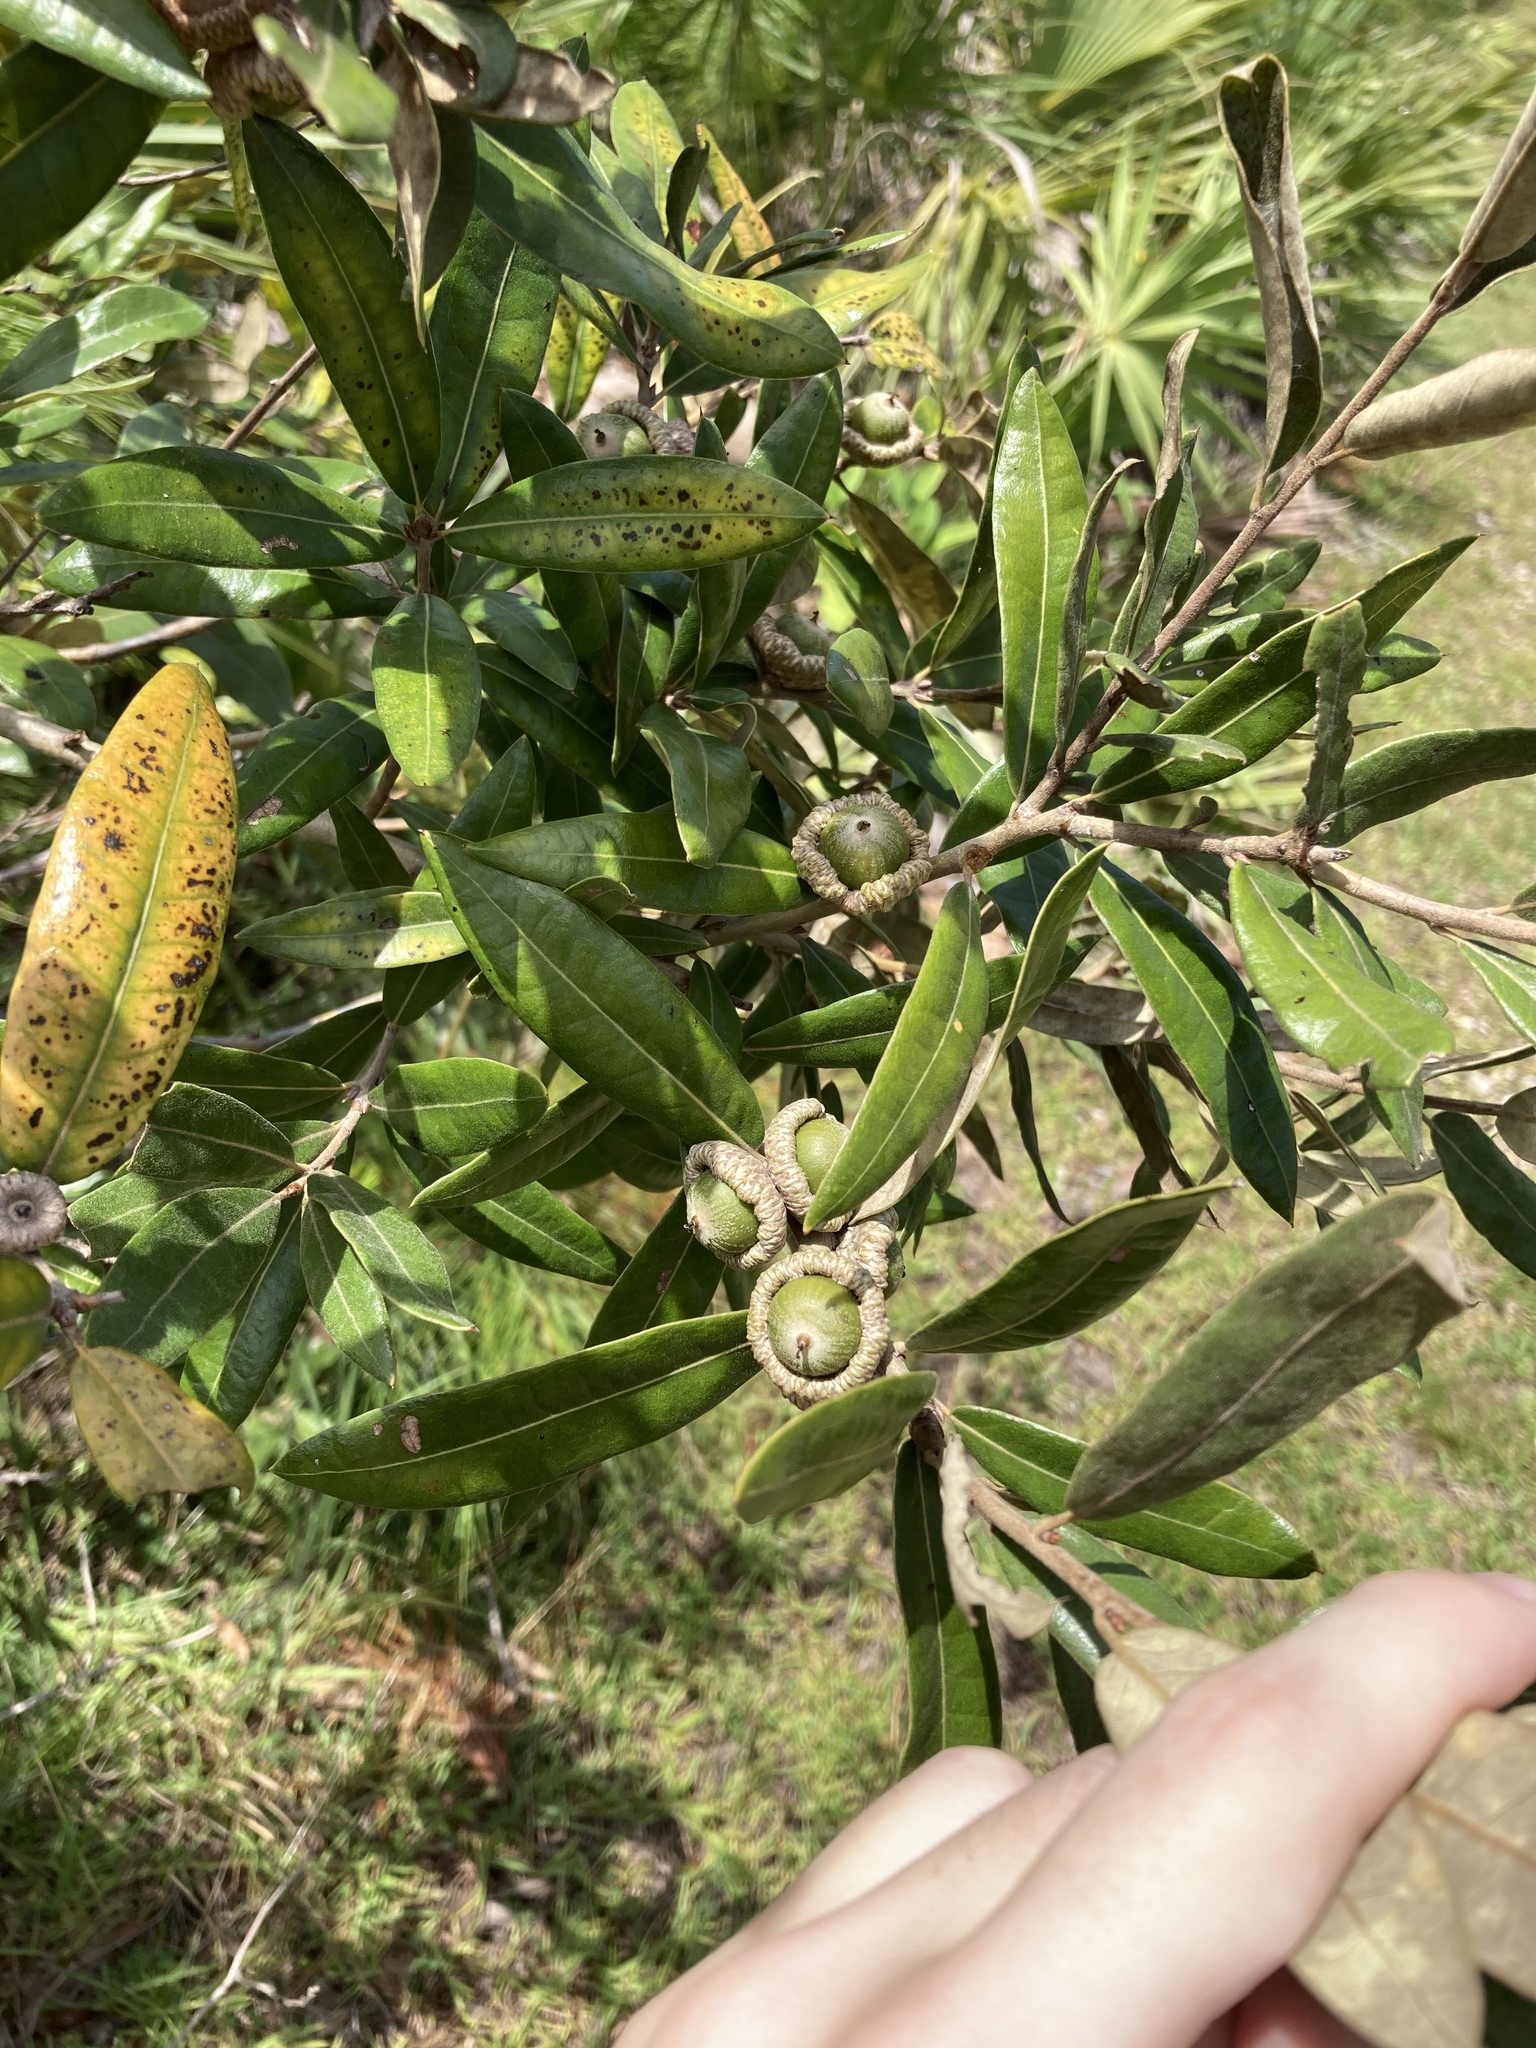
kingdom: Plantae
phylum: Tracheophyta
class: Magnoliopsida
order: Fagales
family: Fagaceae
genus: Quercus
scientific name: Quercus pumila
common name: Runner oak
